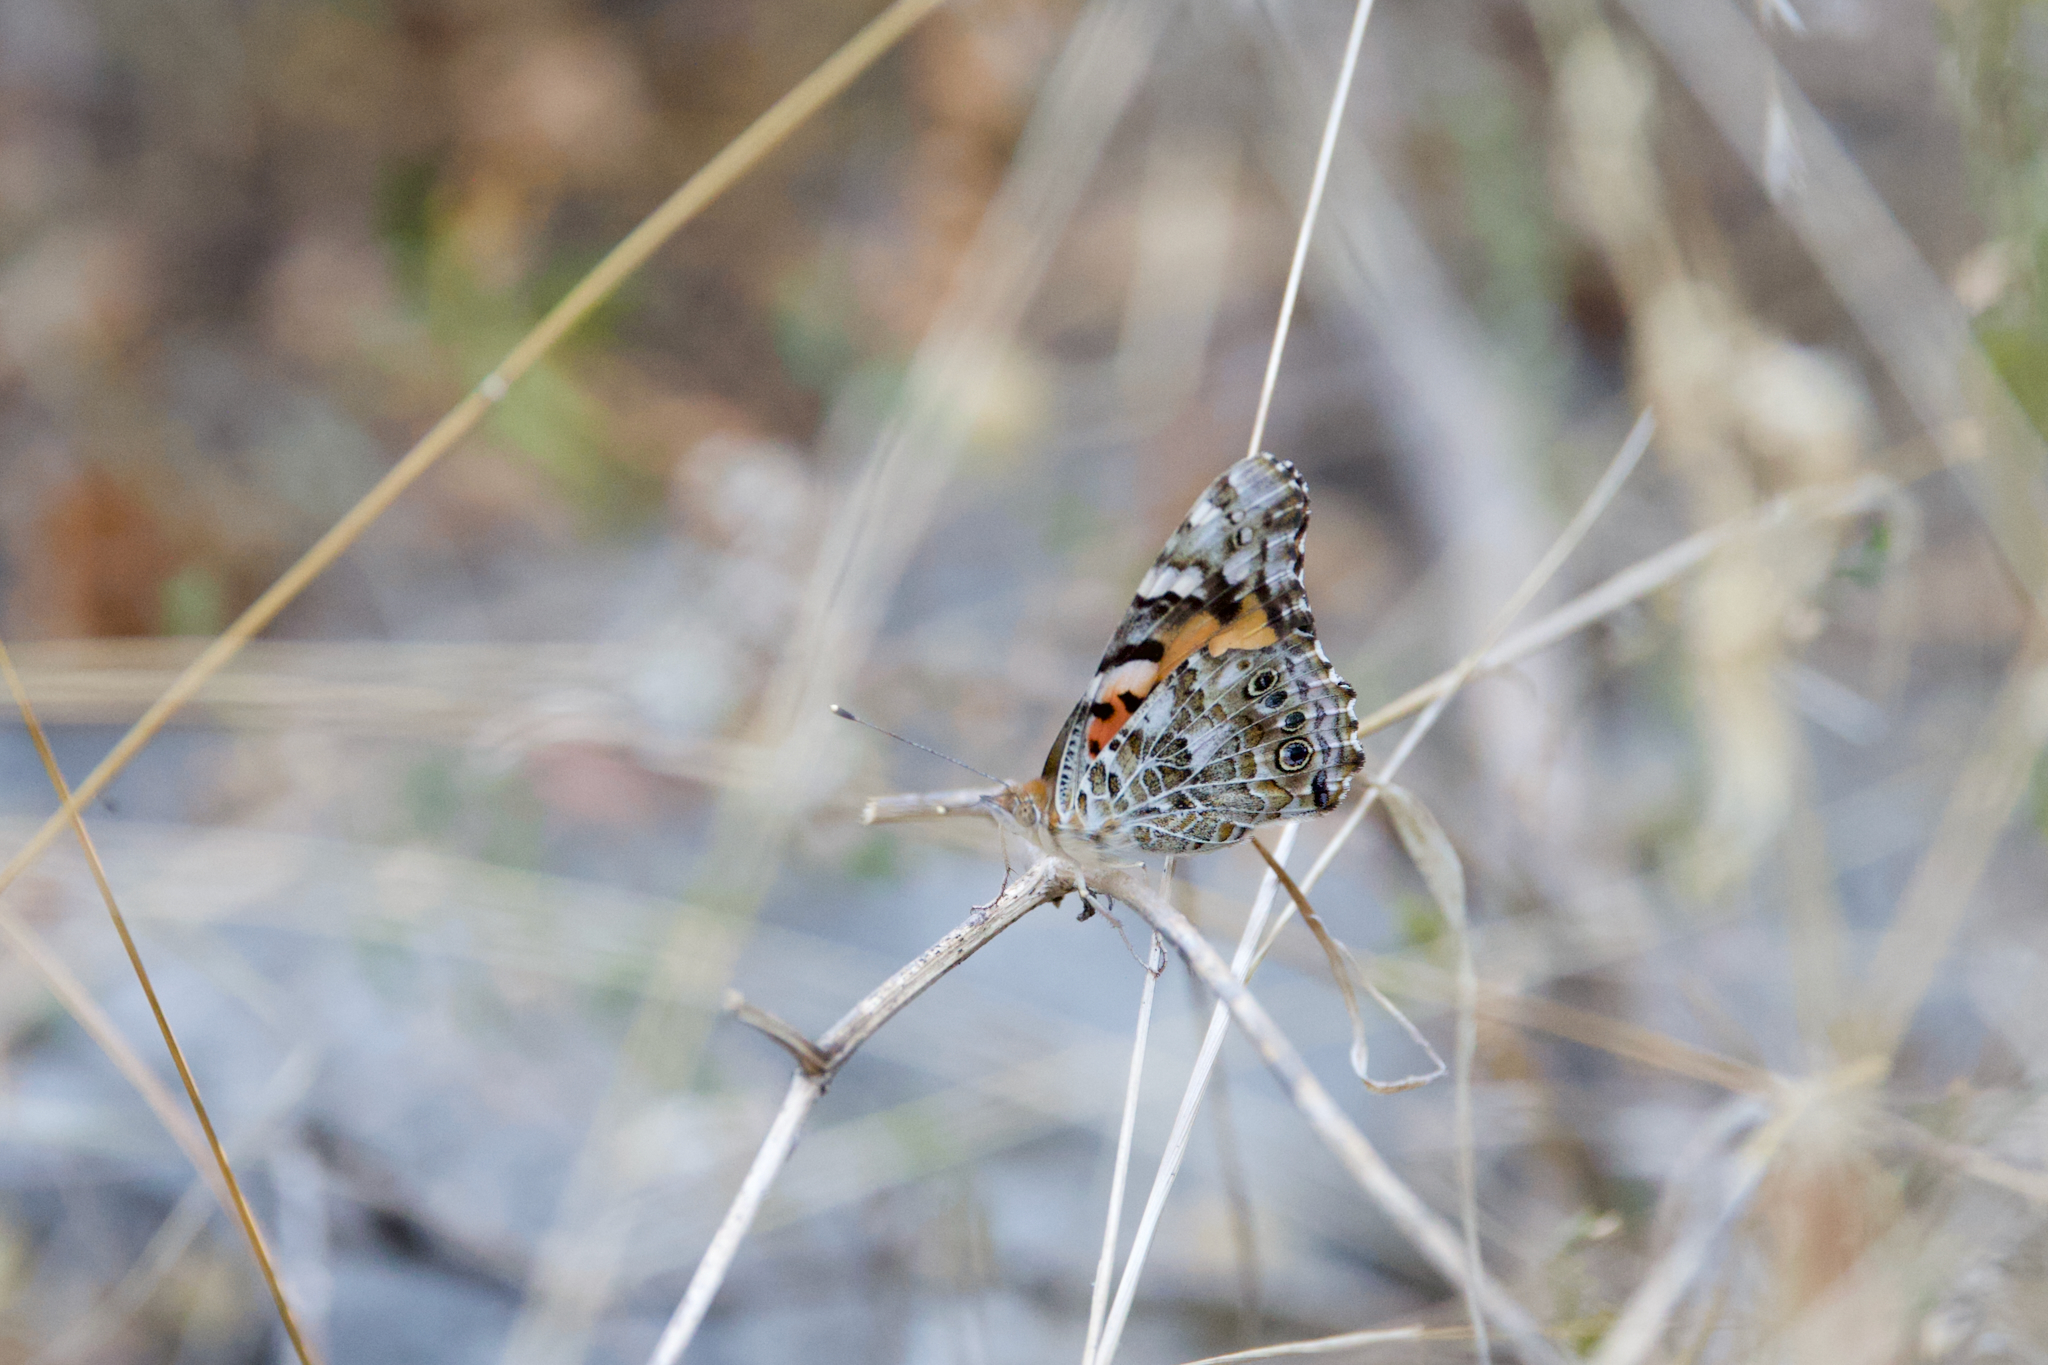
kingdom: Animalia
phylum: Arthropoda
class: Insecta
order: Lepidoptera
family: Nymphalidae
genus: Vanessa
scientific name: Vanessa cardui
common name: Painted lady
